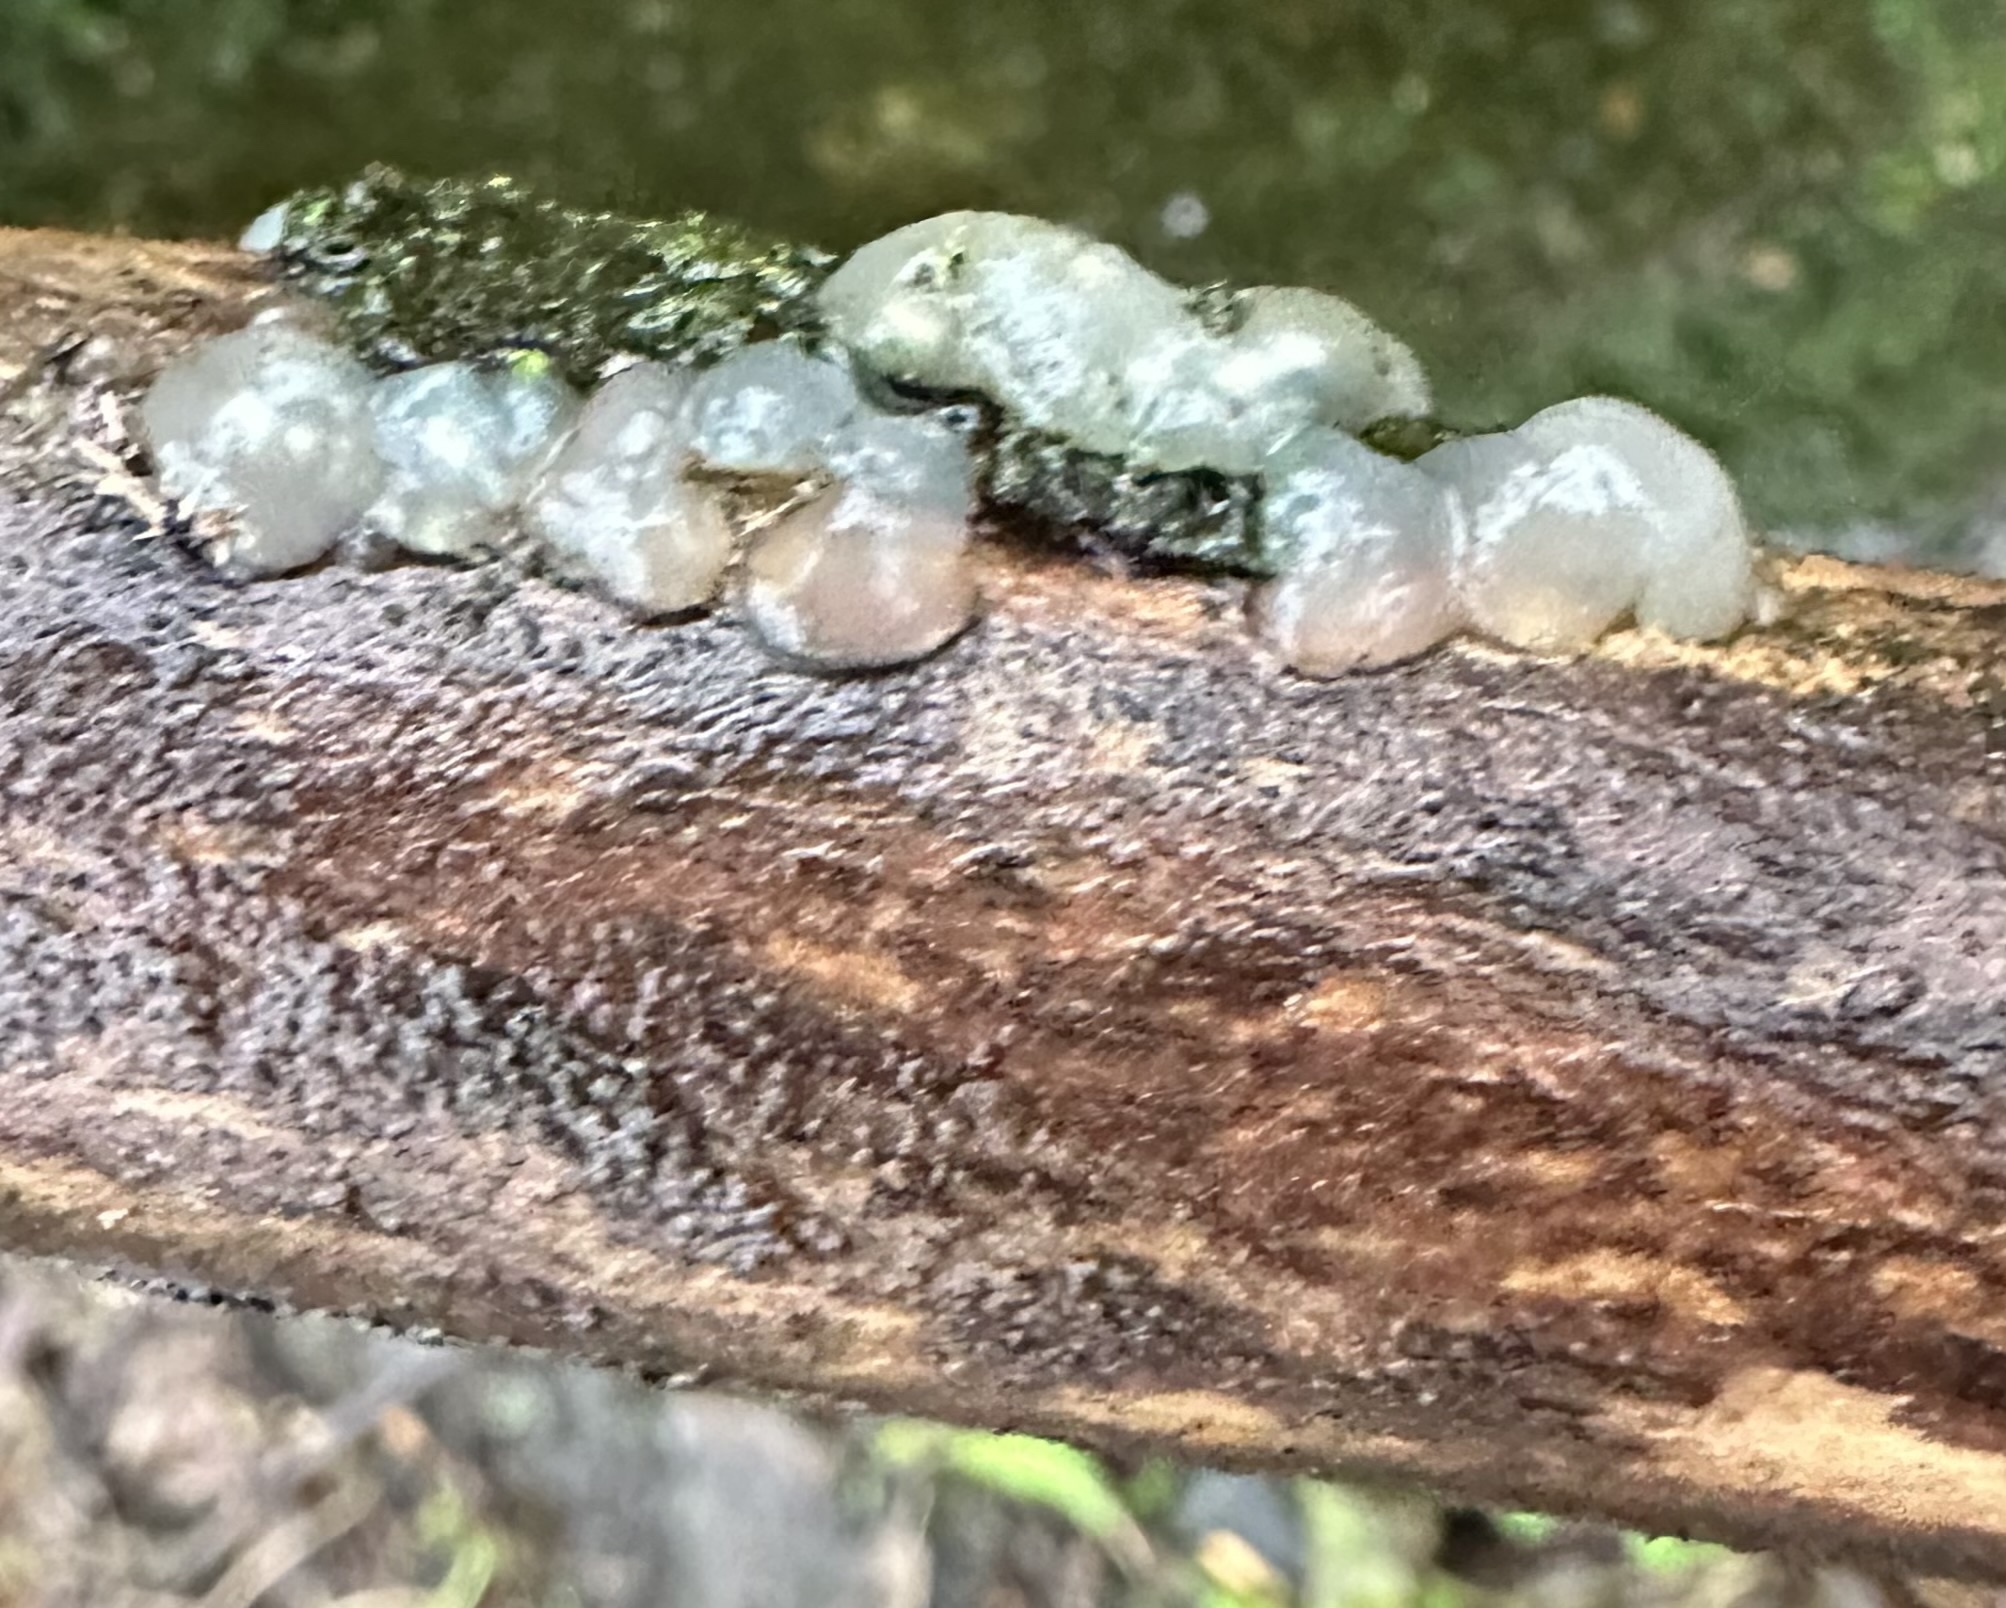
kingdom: Fungi
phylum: Basidiomycota
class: Agaricomycetes
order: Auriculariales
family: Hyaloriaceae
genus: Myxarium
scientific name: Myxarium nucleatum
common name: Crystal brain fungus
